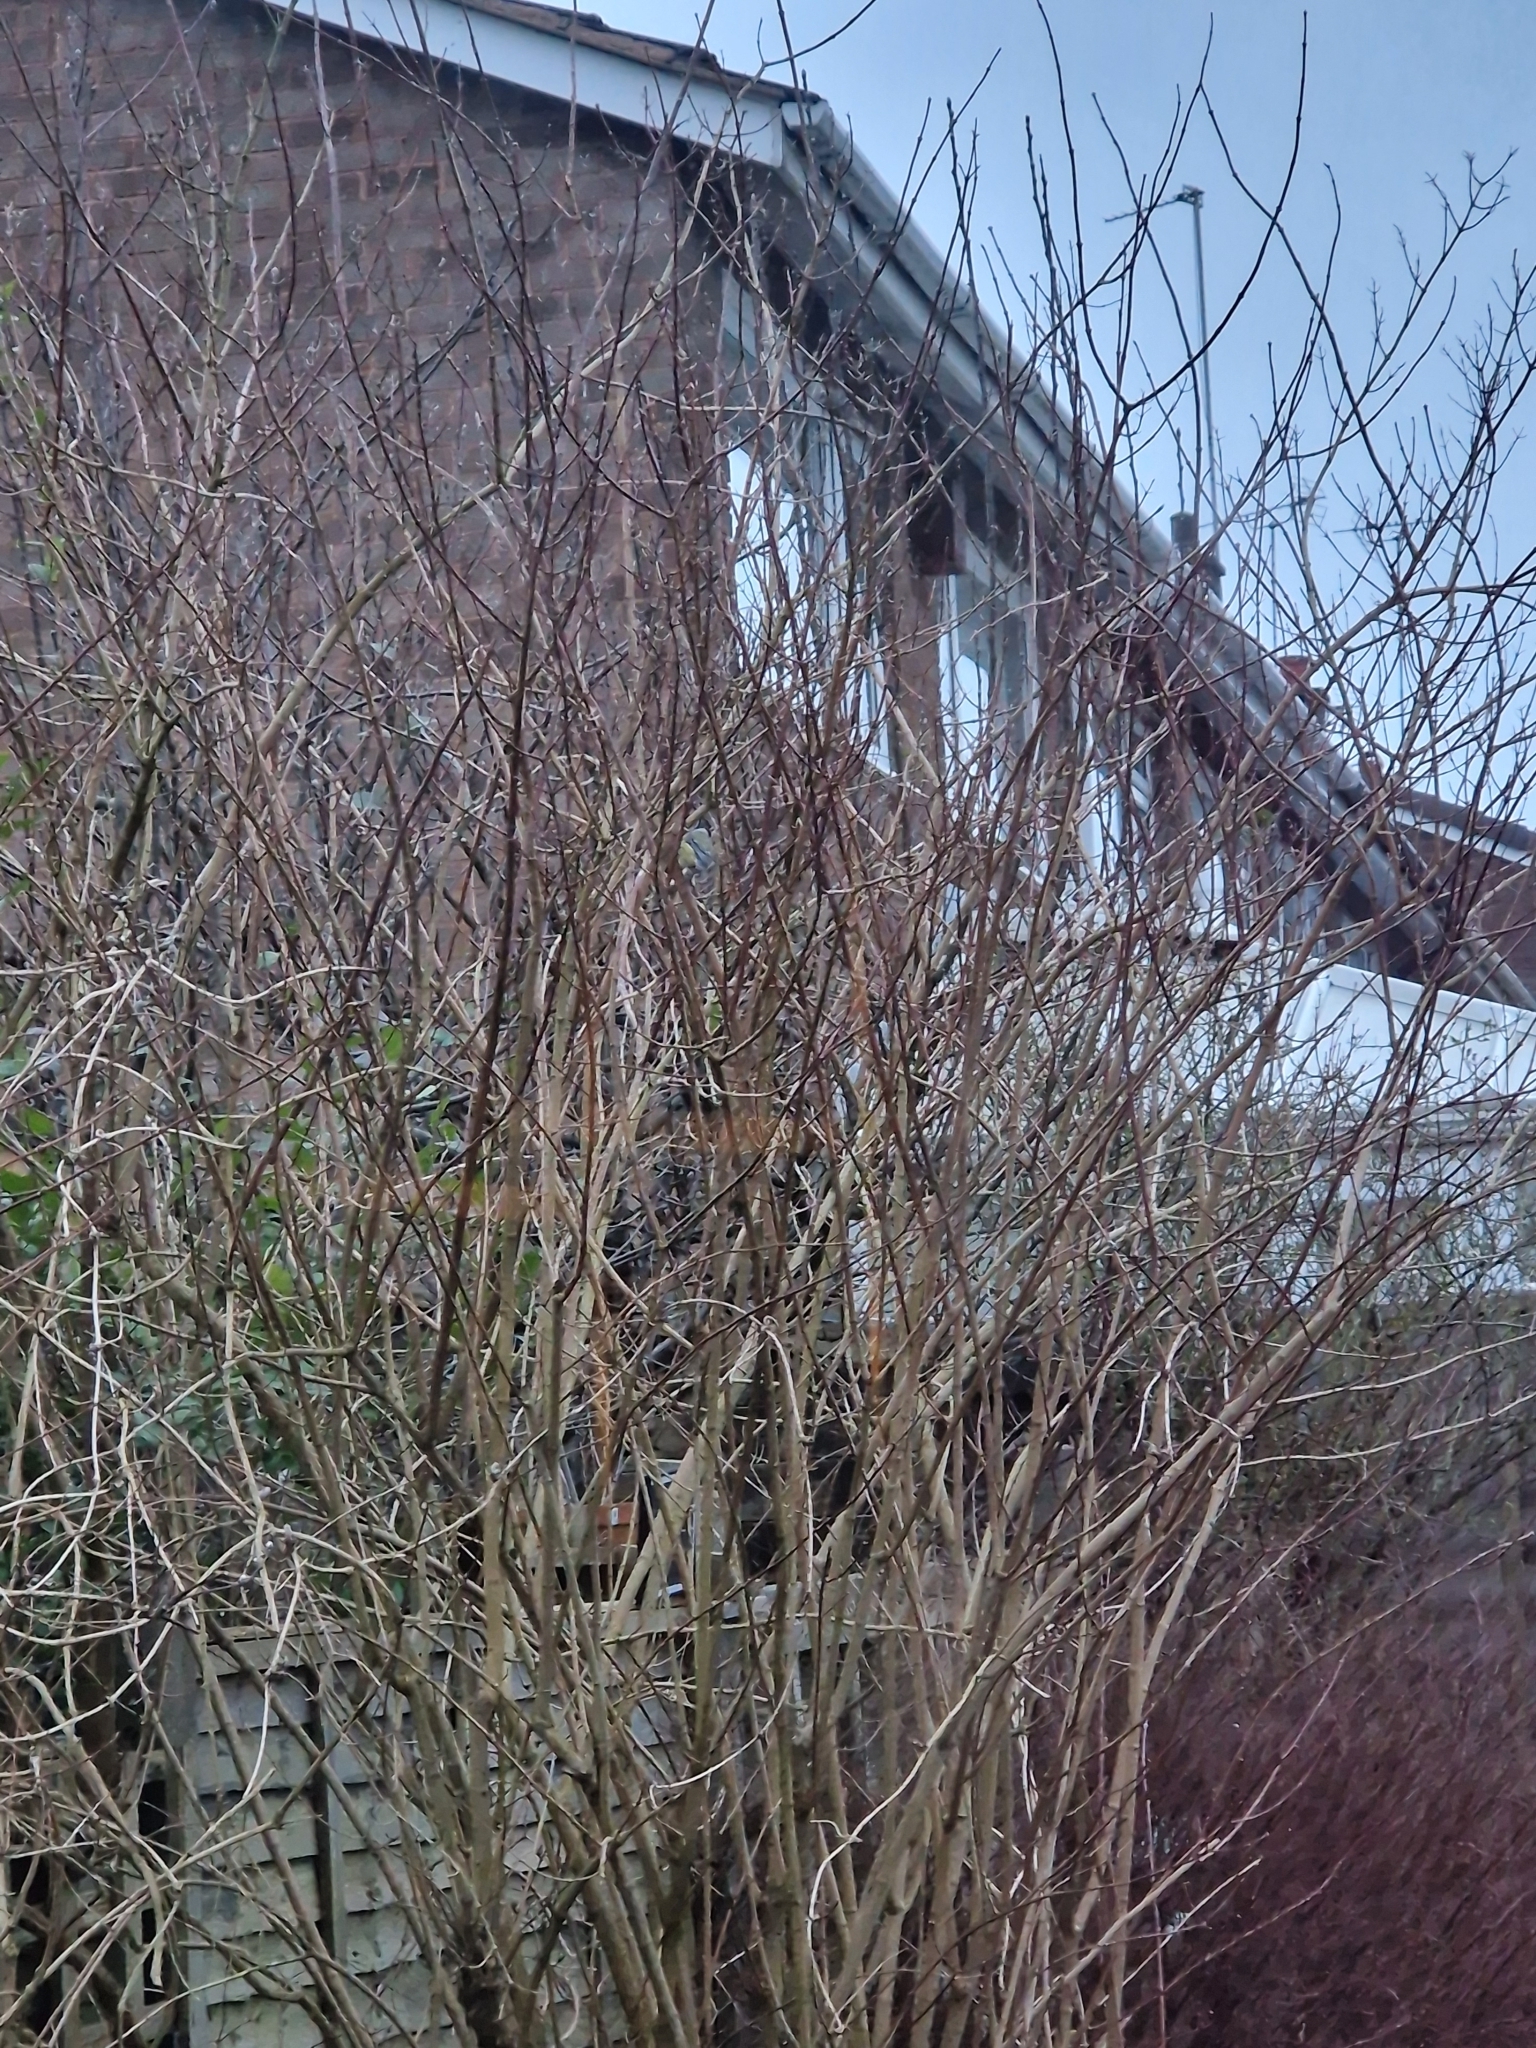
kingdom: Animalia
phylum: Chordata
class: Aves
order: Passeriformes
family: Paridae
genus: Cyanistes
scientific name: Cyanistes caeruleus
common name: Eurasian blue tit
